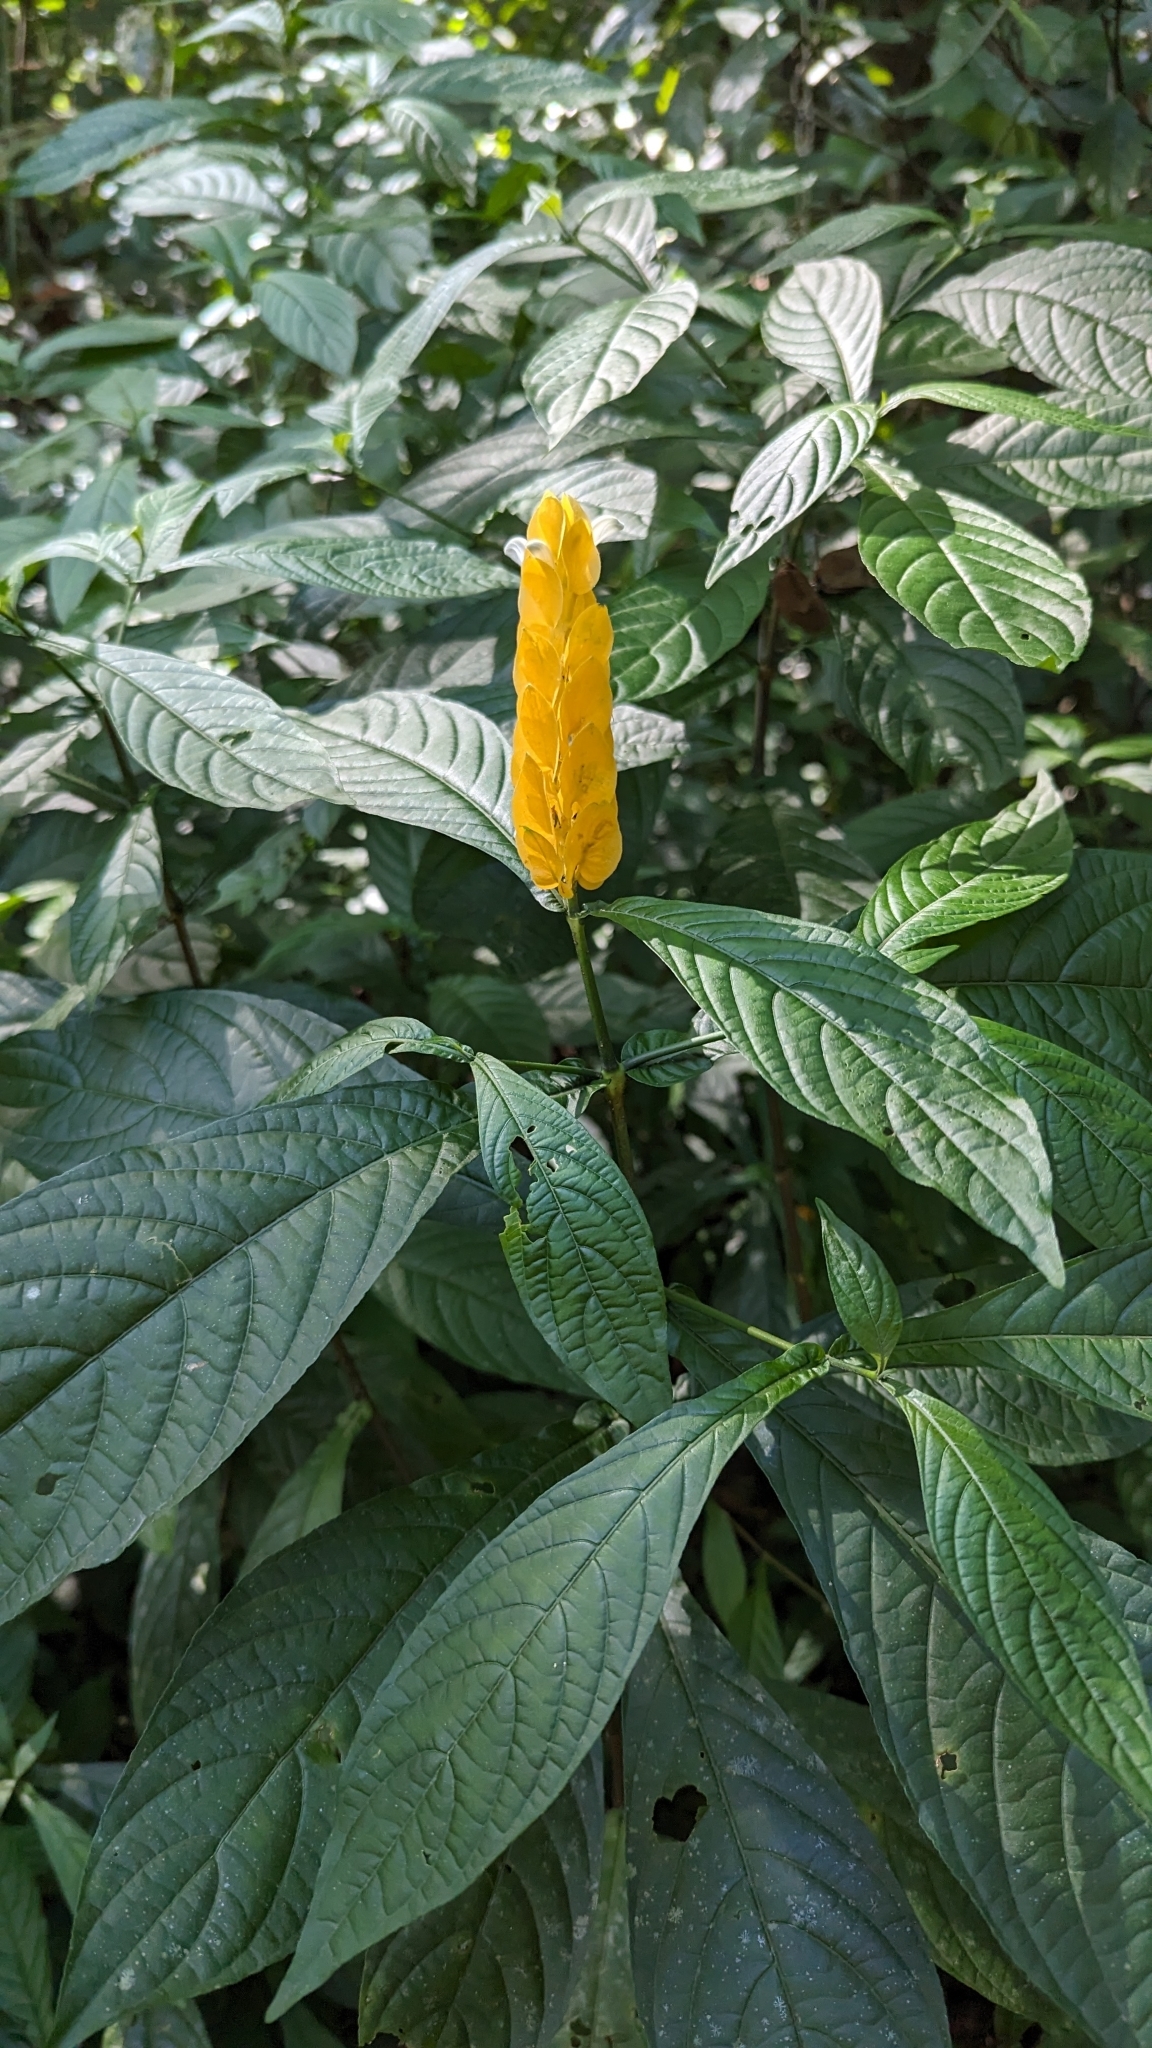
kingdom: Plantae
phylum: Tracheophyta
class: Magnoliopsida
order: Lamiales
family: Acanthaceae
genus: Pachystachys
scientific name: Pachystachys lutea
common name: Golden shrimp-plant
